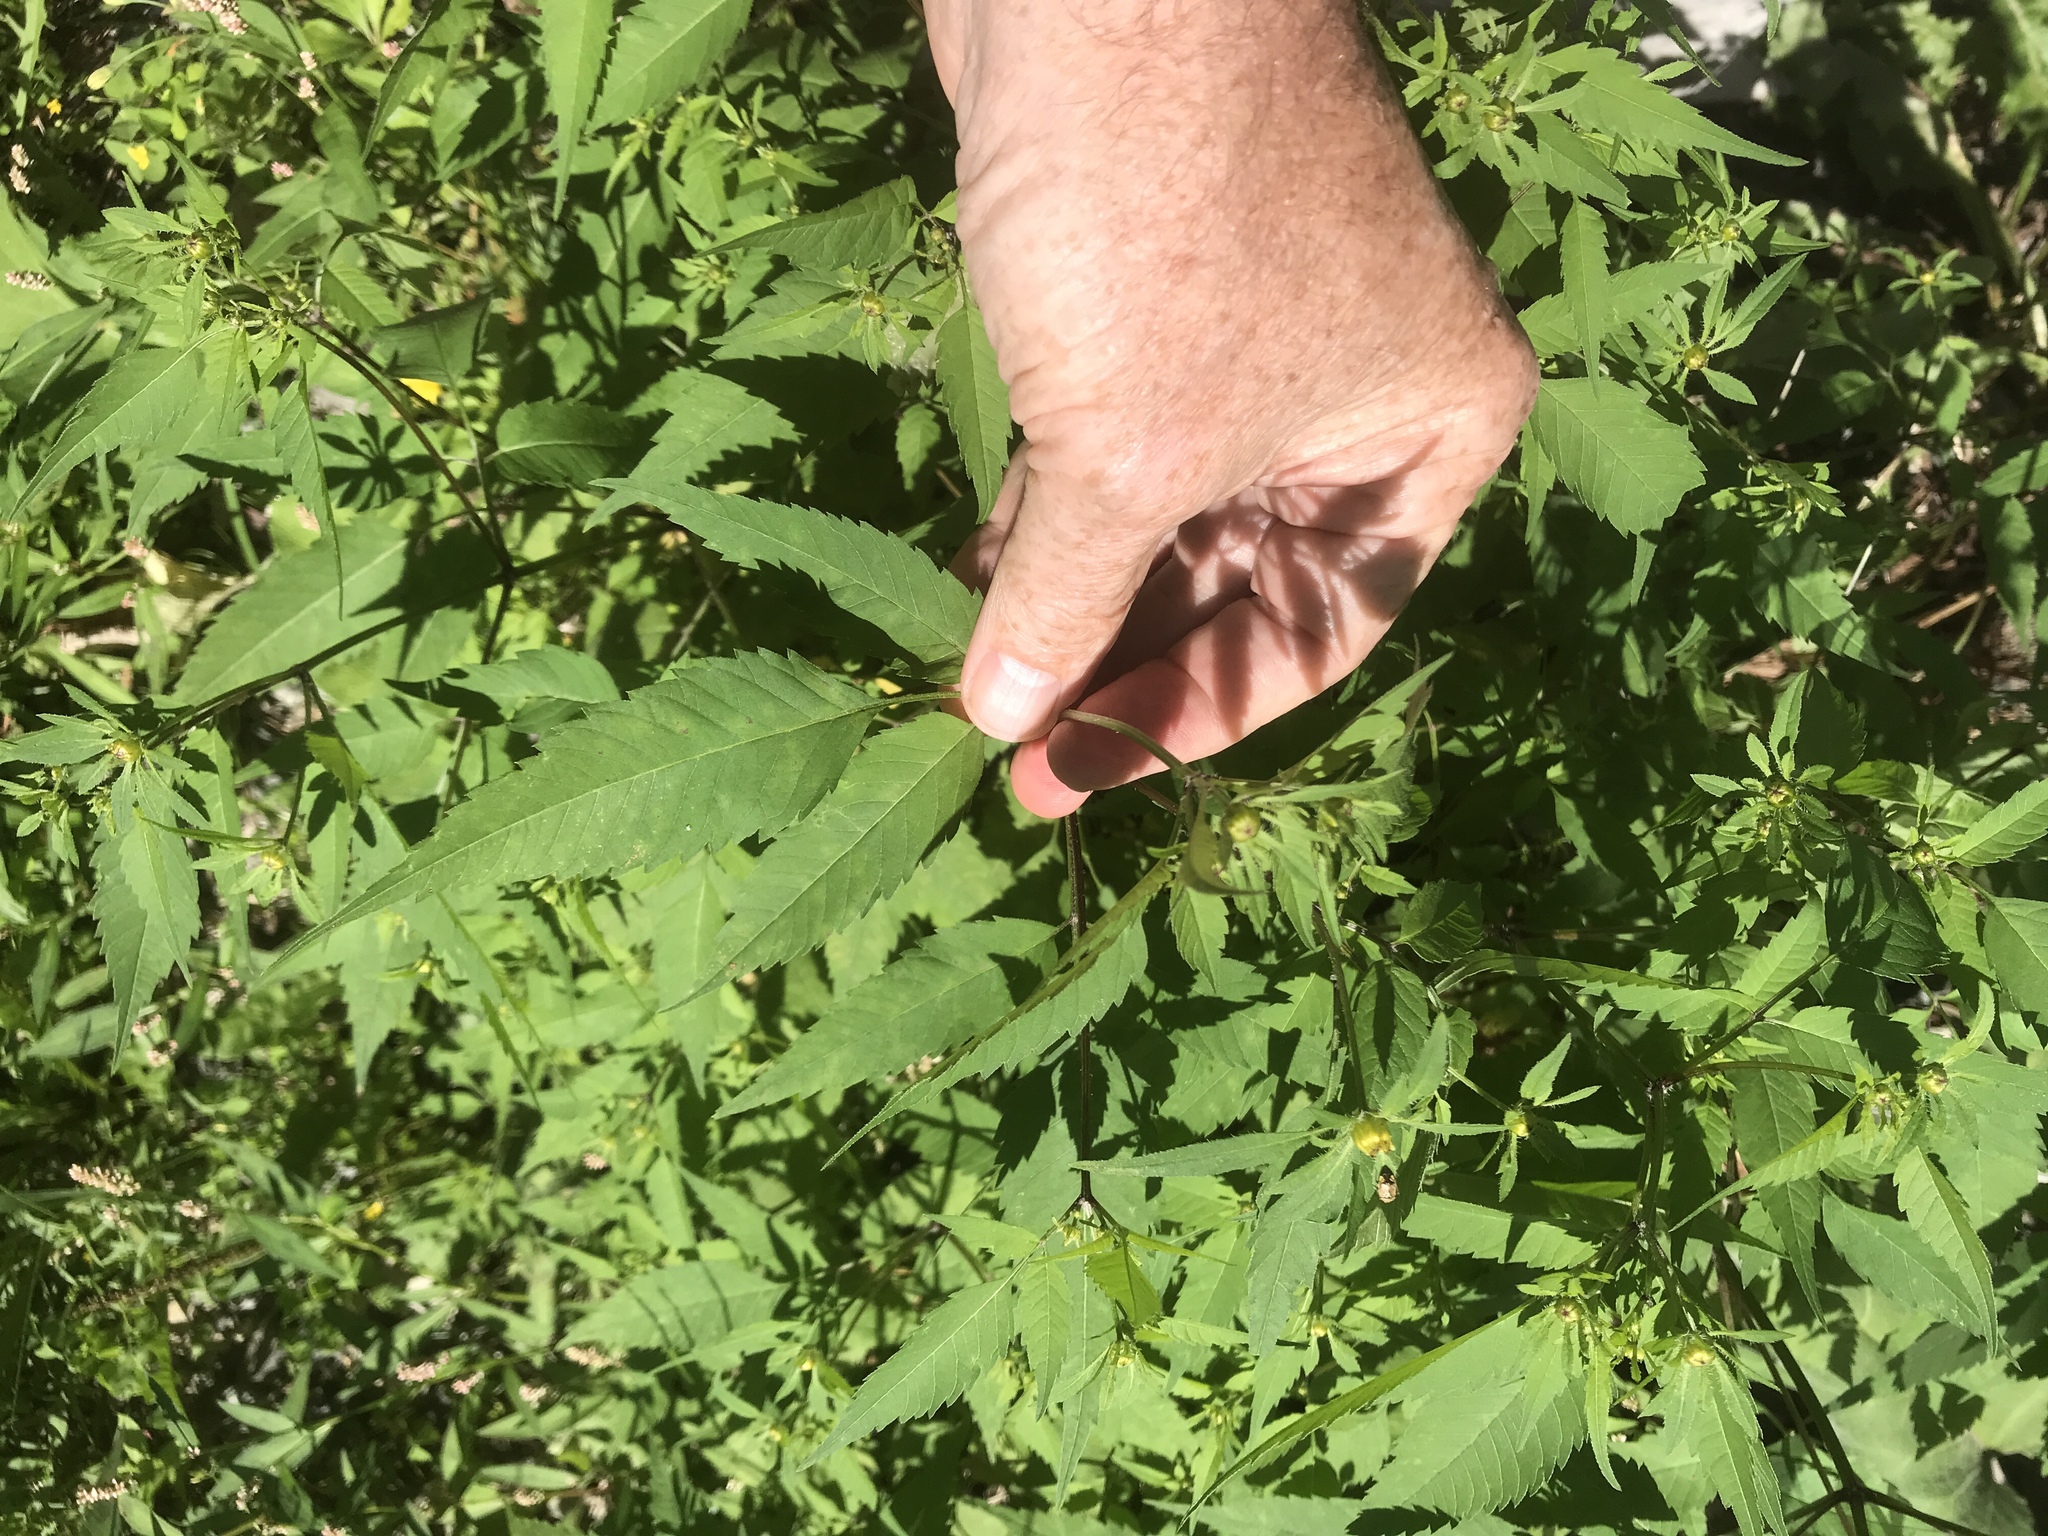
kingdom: Plantae
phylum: Tracheophyta
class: Magnoliopsida
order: Asterales
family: Asteraceae
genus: Bidens
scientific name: Bidens frondosa
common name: Beggarticks
